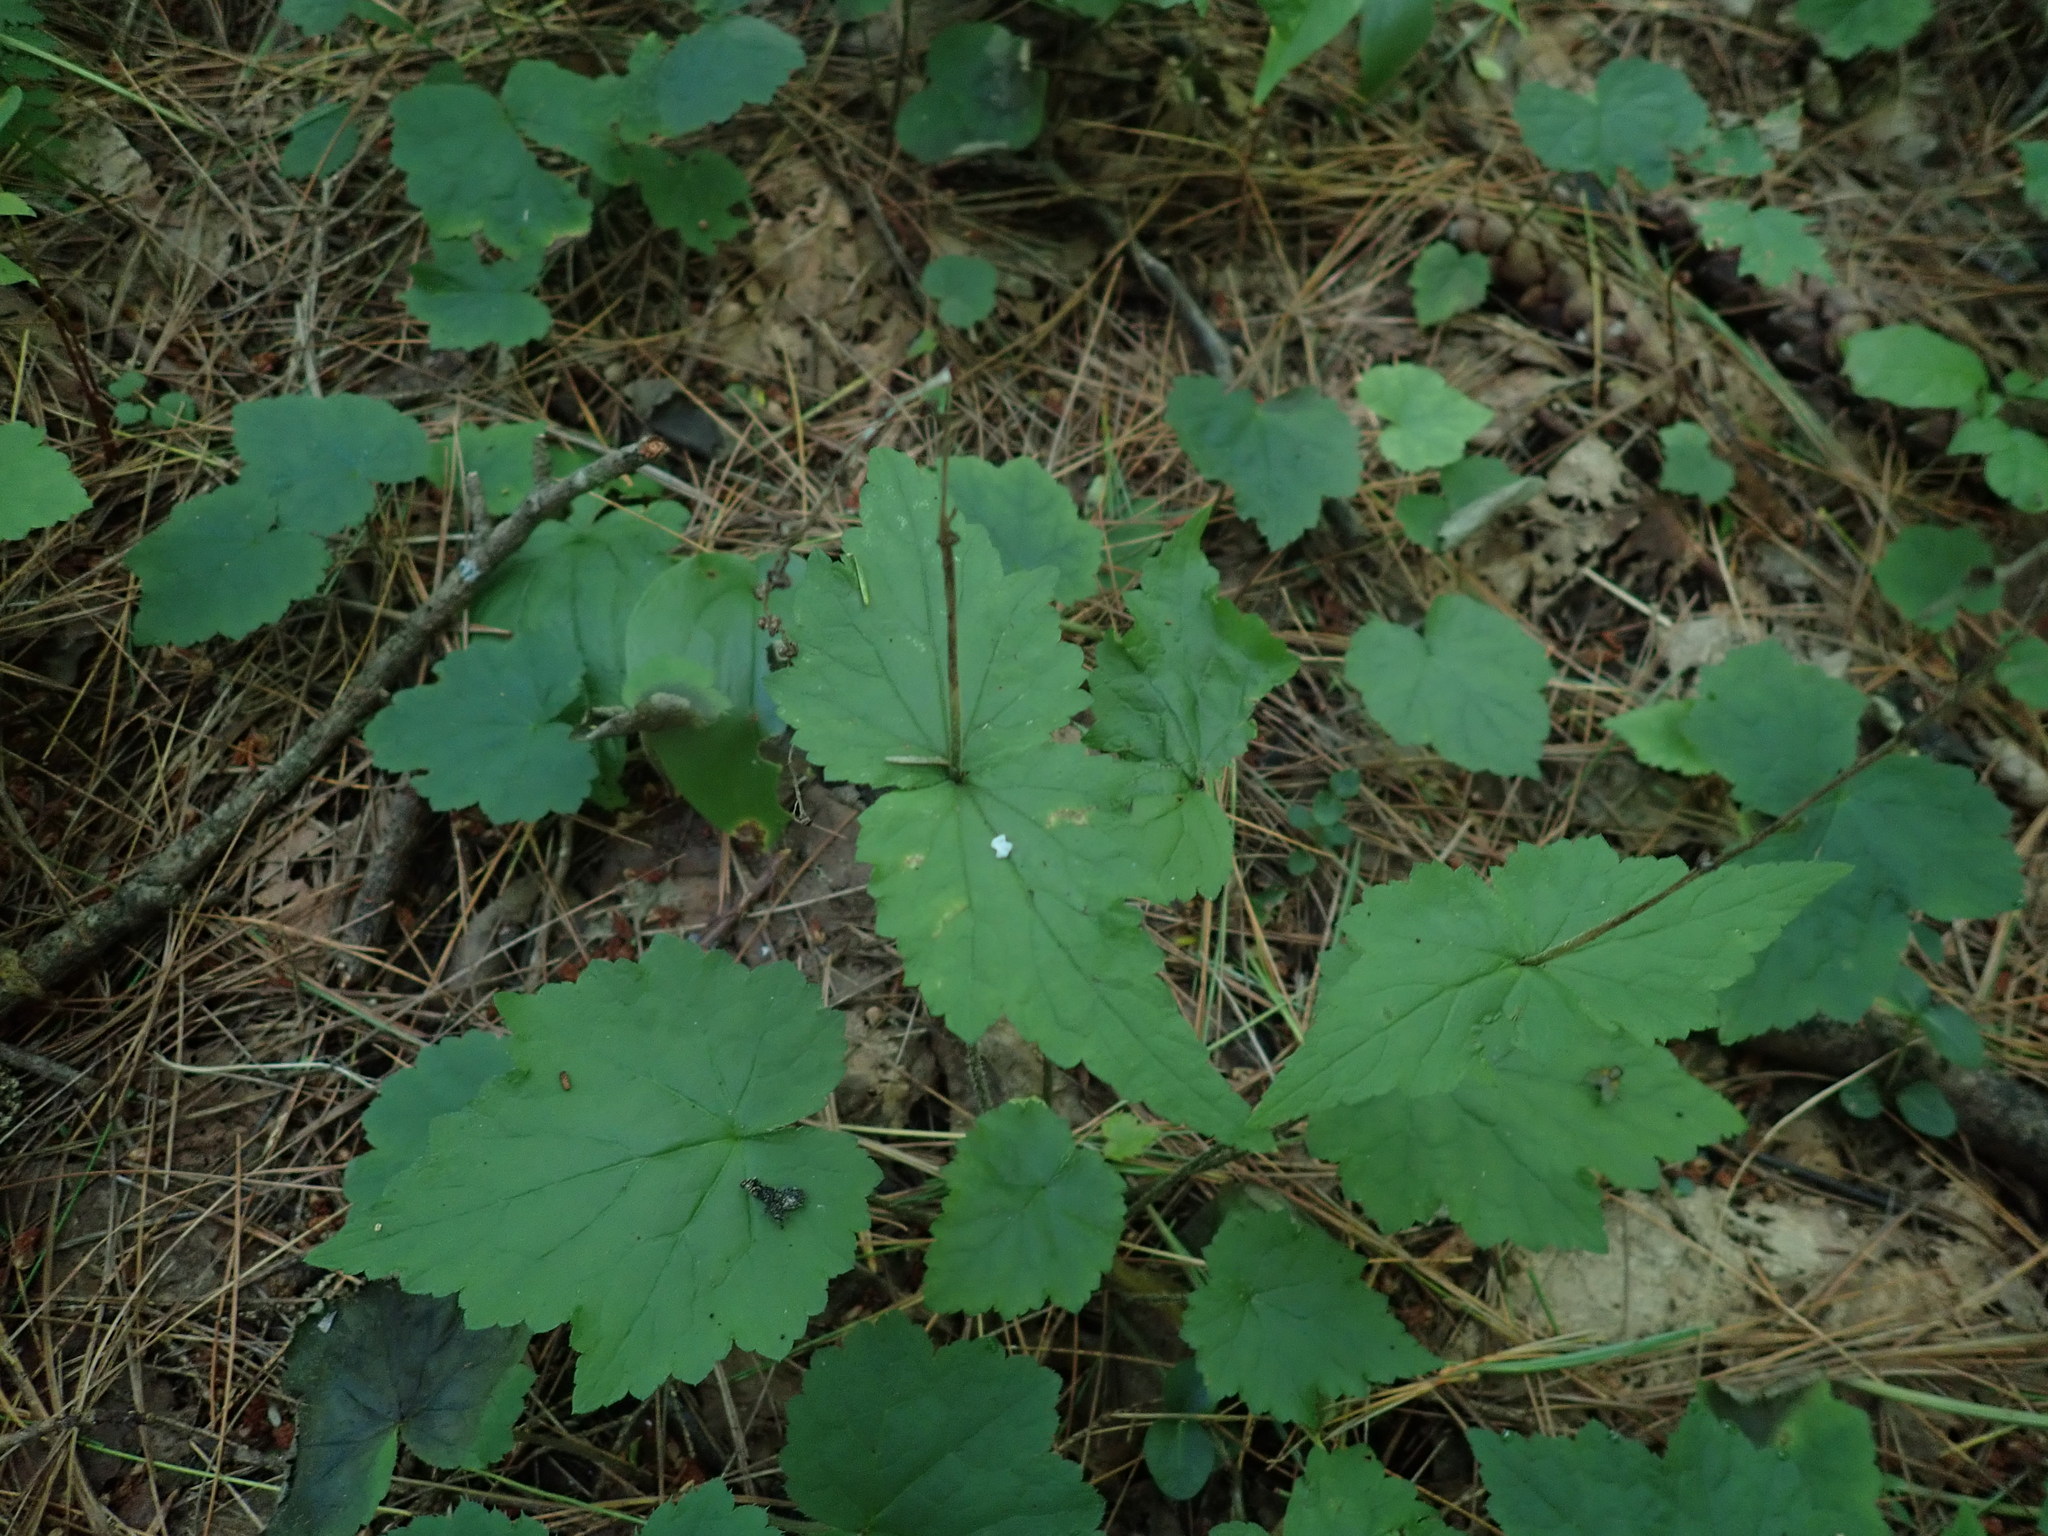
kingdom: Plantae
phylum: Tracheophyta
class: Magnoliopsida
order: Saxifragales
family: Saxifragaceae
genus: Mitella
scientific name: Mitella diphylla
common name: Coolwort
